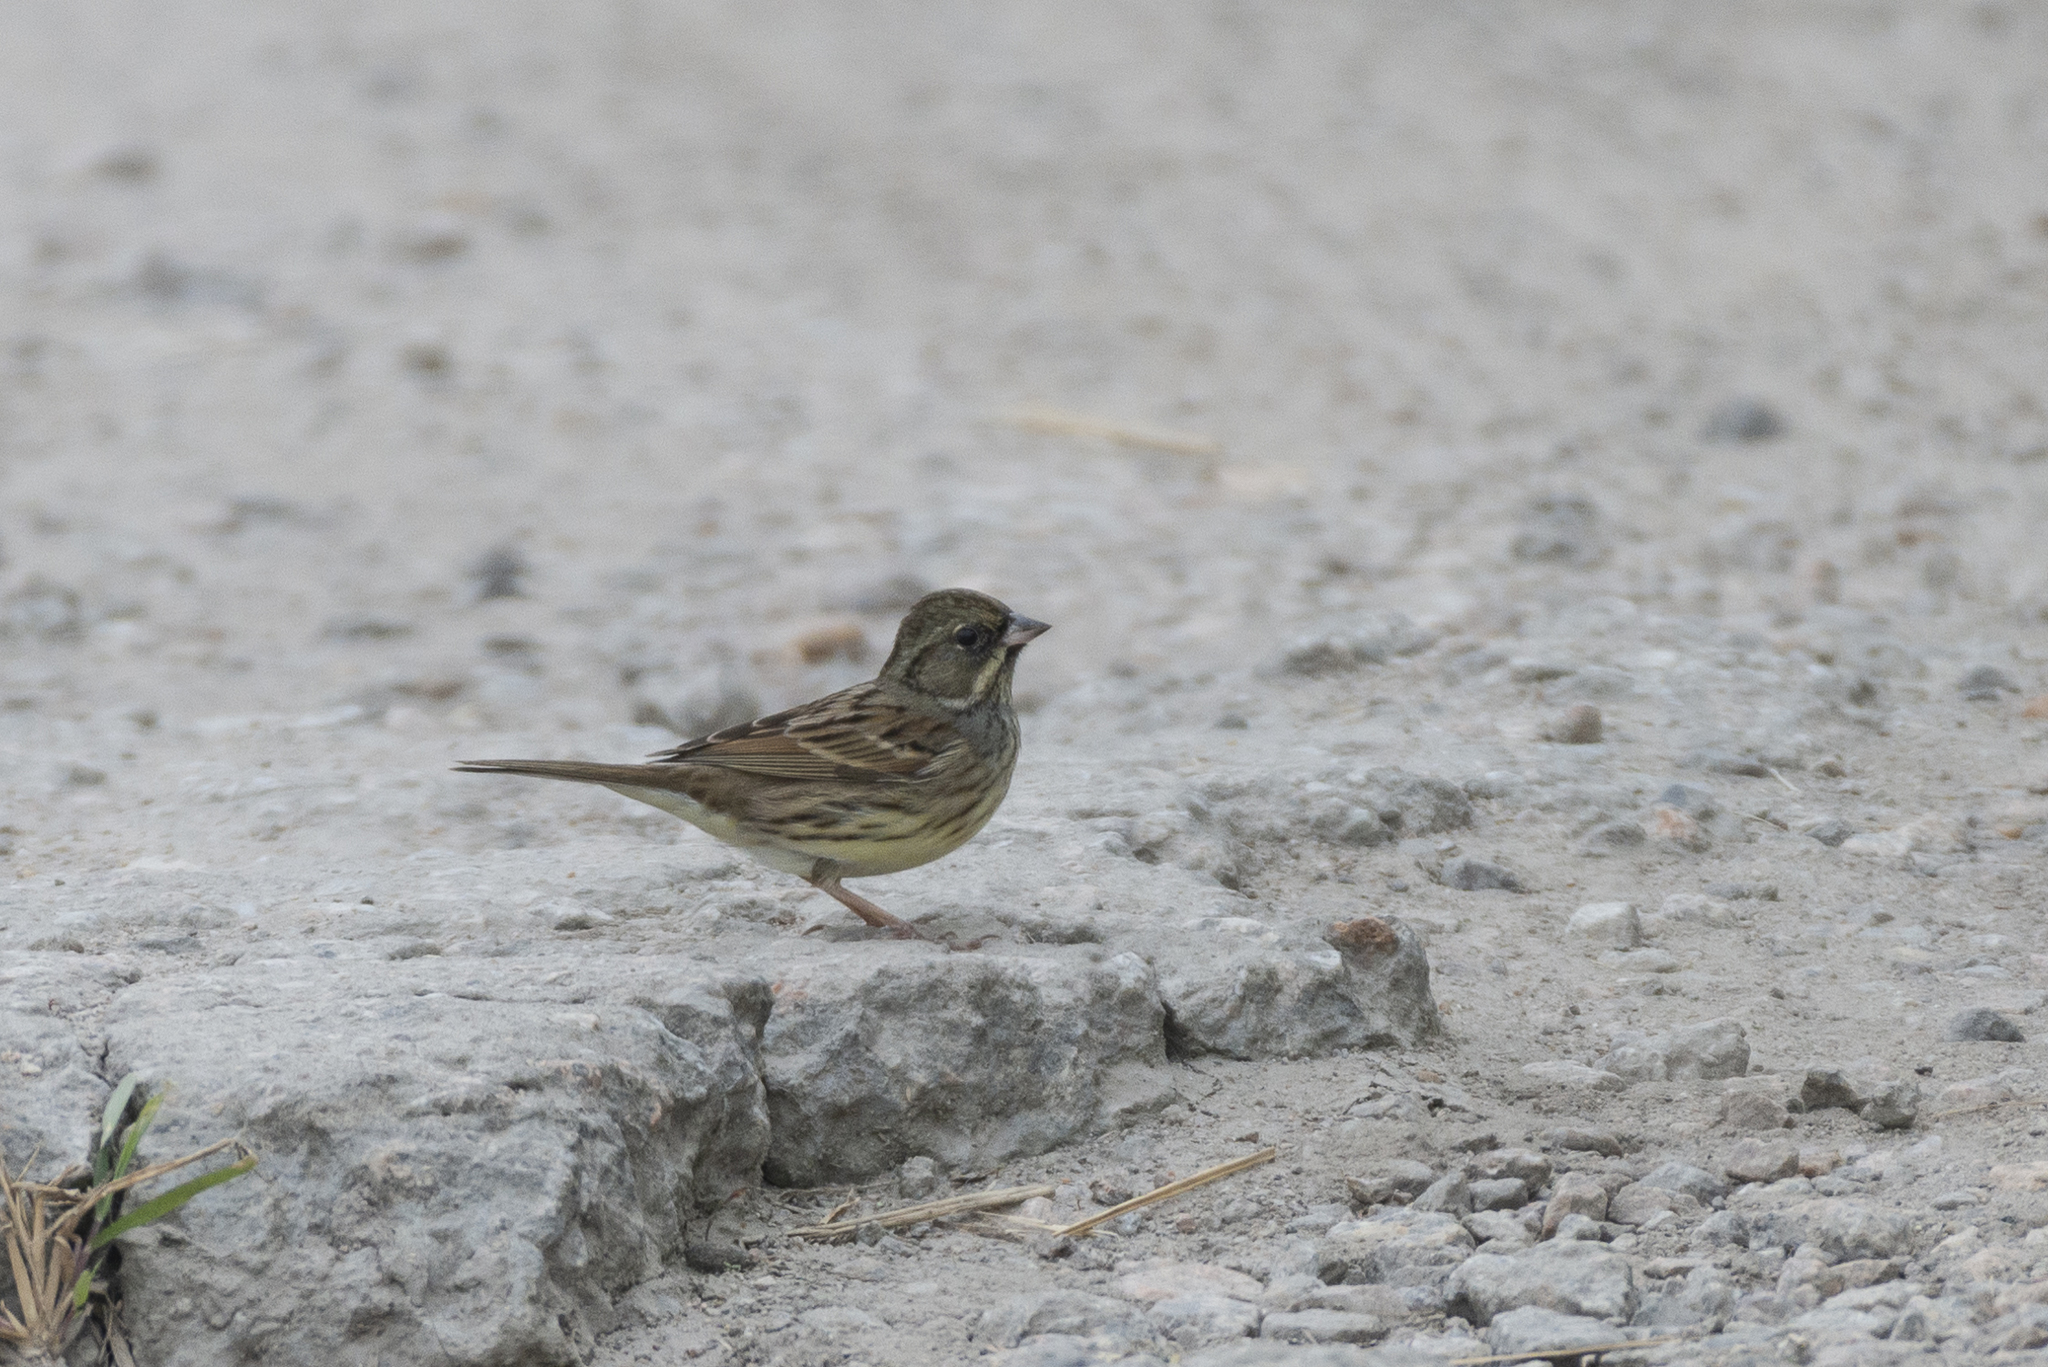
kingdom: Animalia
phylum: Chordata
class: Aves
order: Passeriformes
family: Emberizidae
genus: Emberiza
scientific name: Emberiza spodocephala
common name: Black-faced bunting
